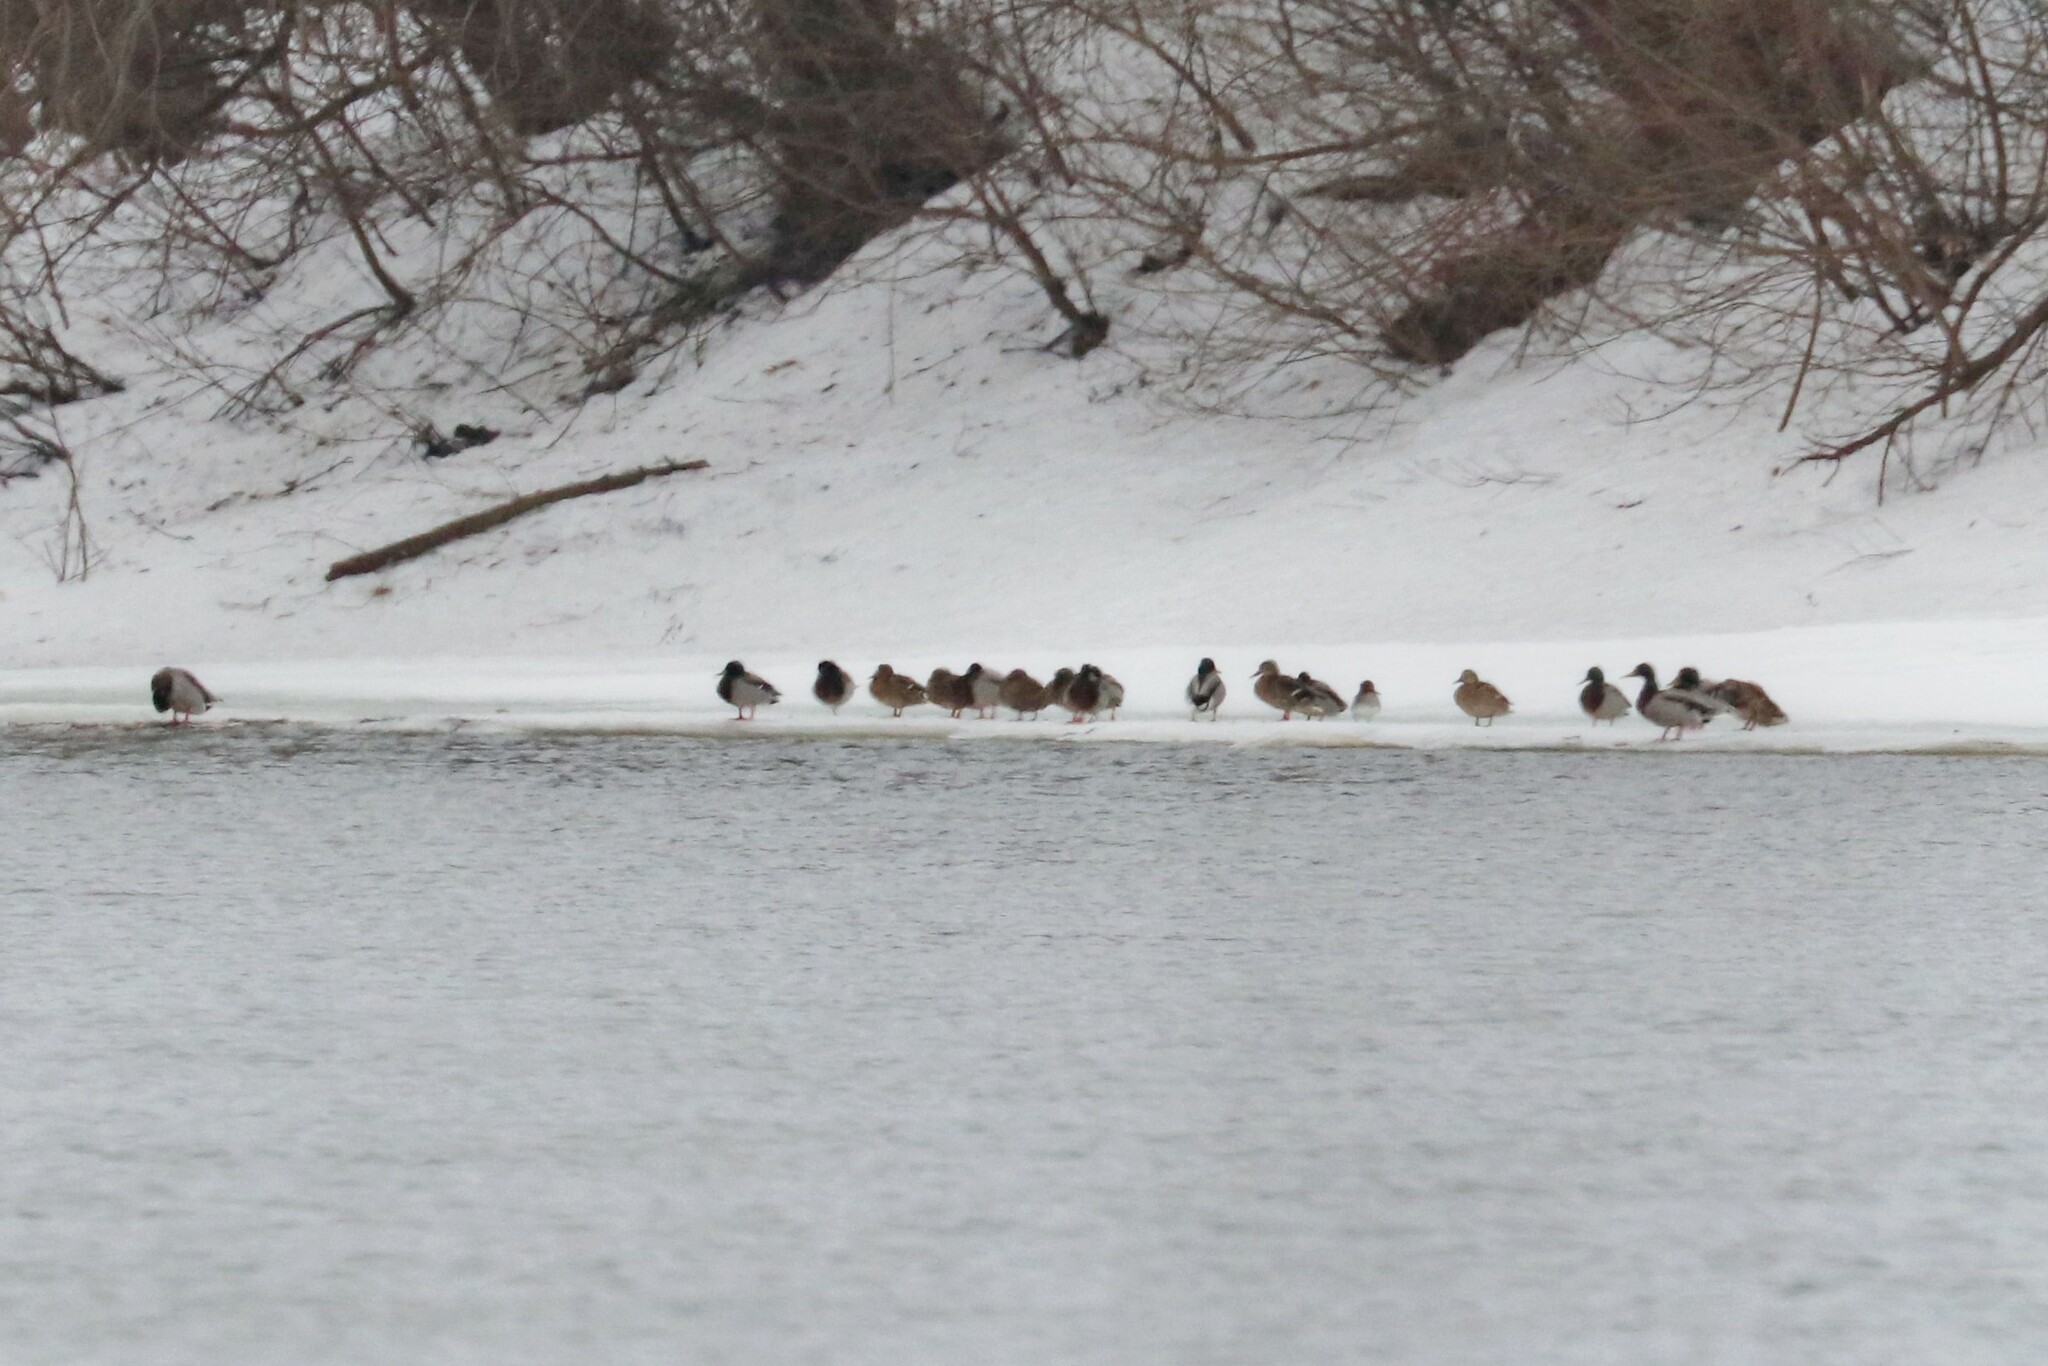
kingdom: Animalia
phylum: Chordata
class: Aves
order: Anseriformes
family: Anatidae
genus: Anas
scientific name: Anas platyrhynchos
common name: Mallard
